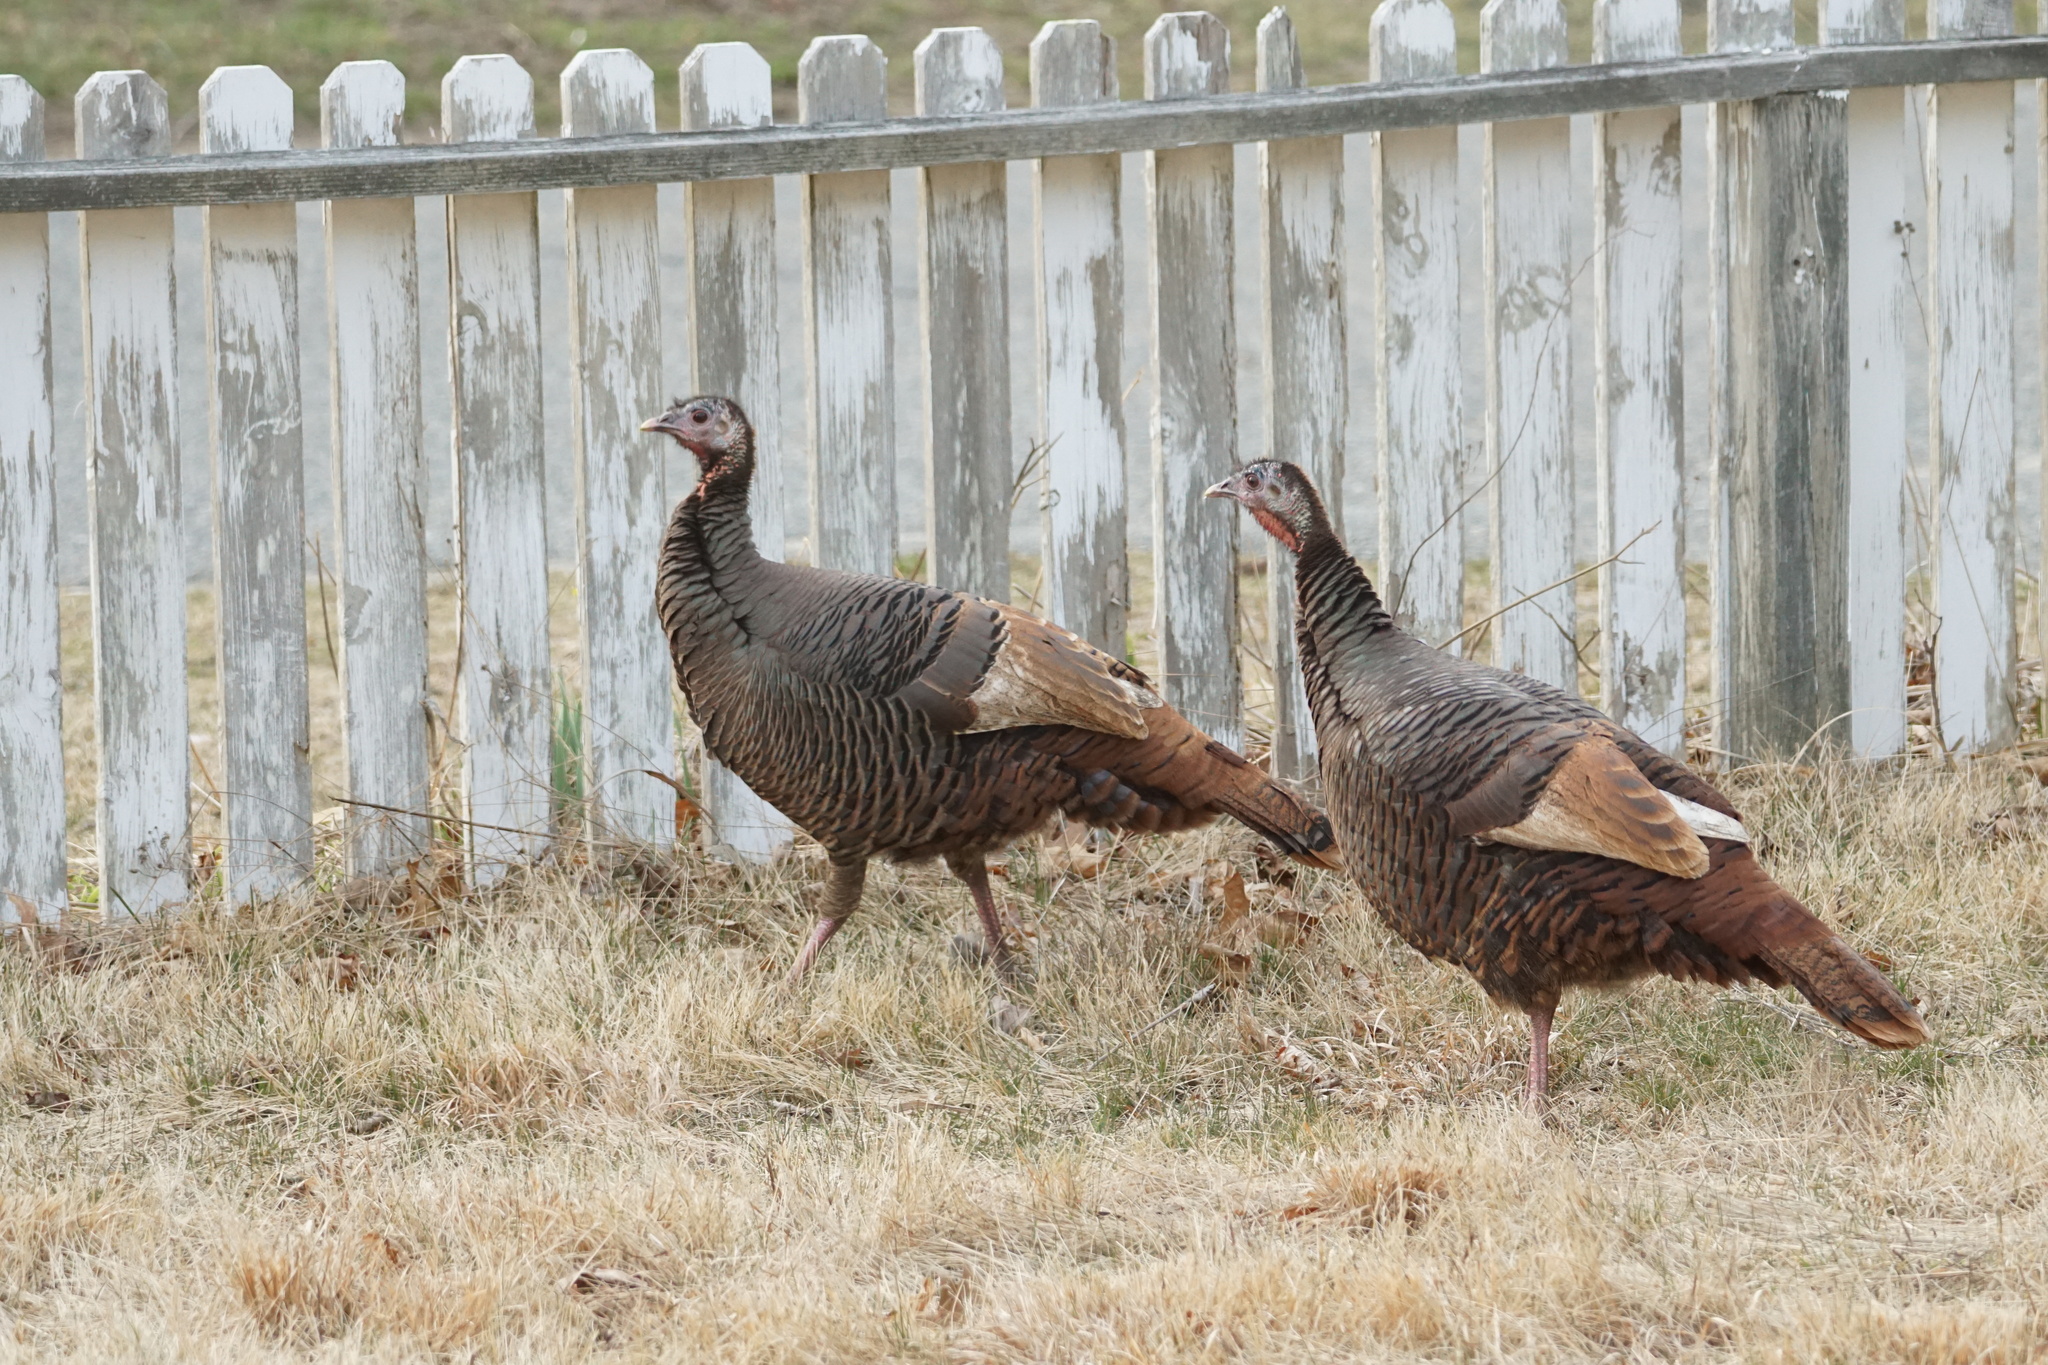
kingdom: Animalia
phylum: Chordata
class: Aves
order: Galliformes
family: Phasianidae
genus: Meleagris
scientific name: Meleagris gallopavo
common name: Wild turkey
